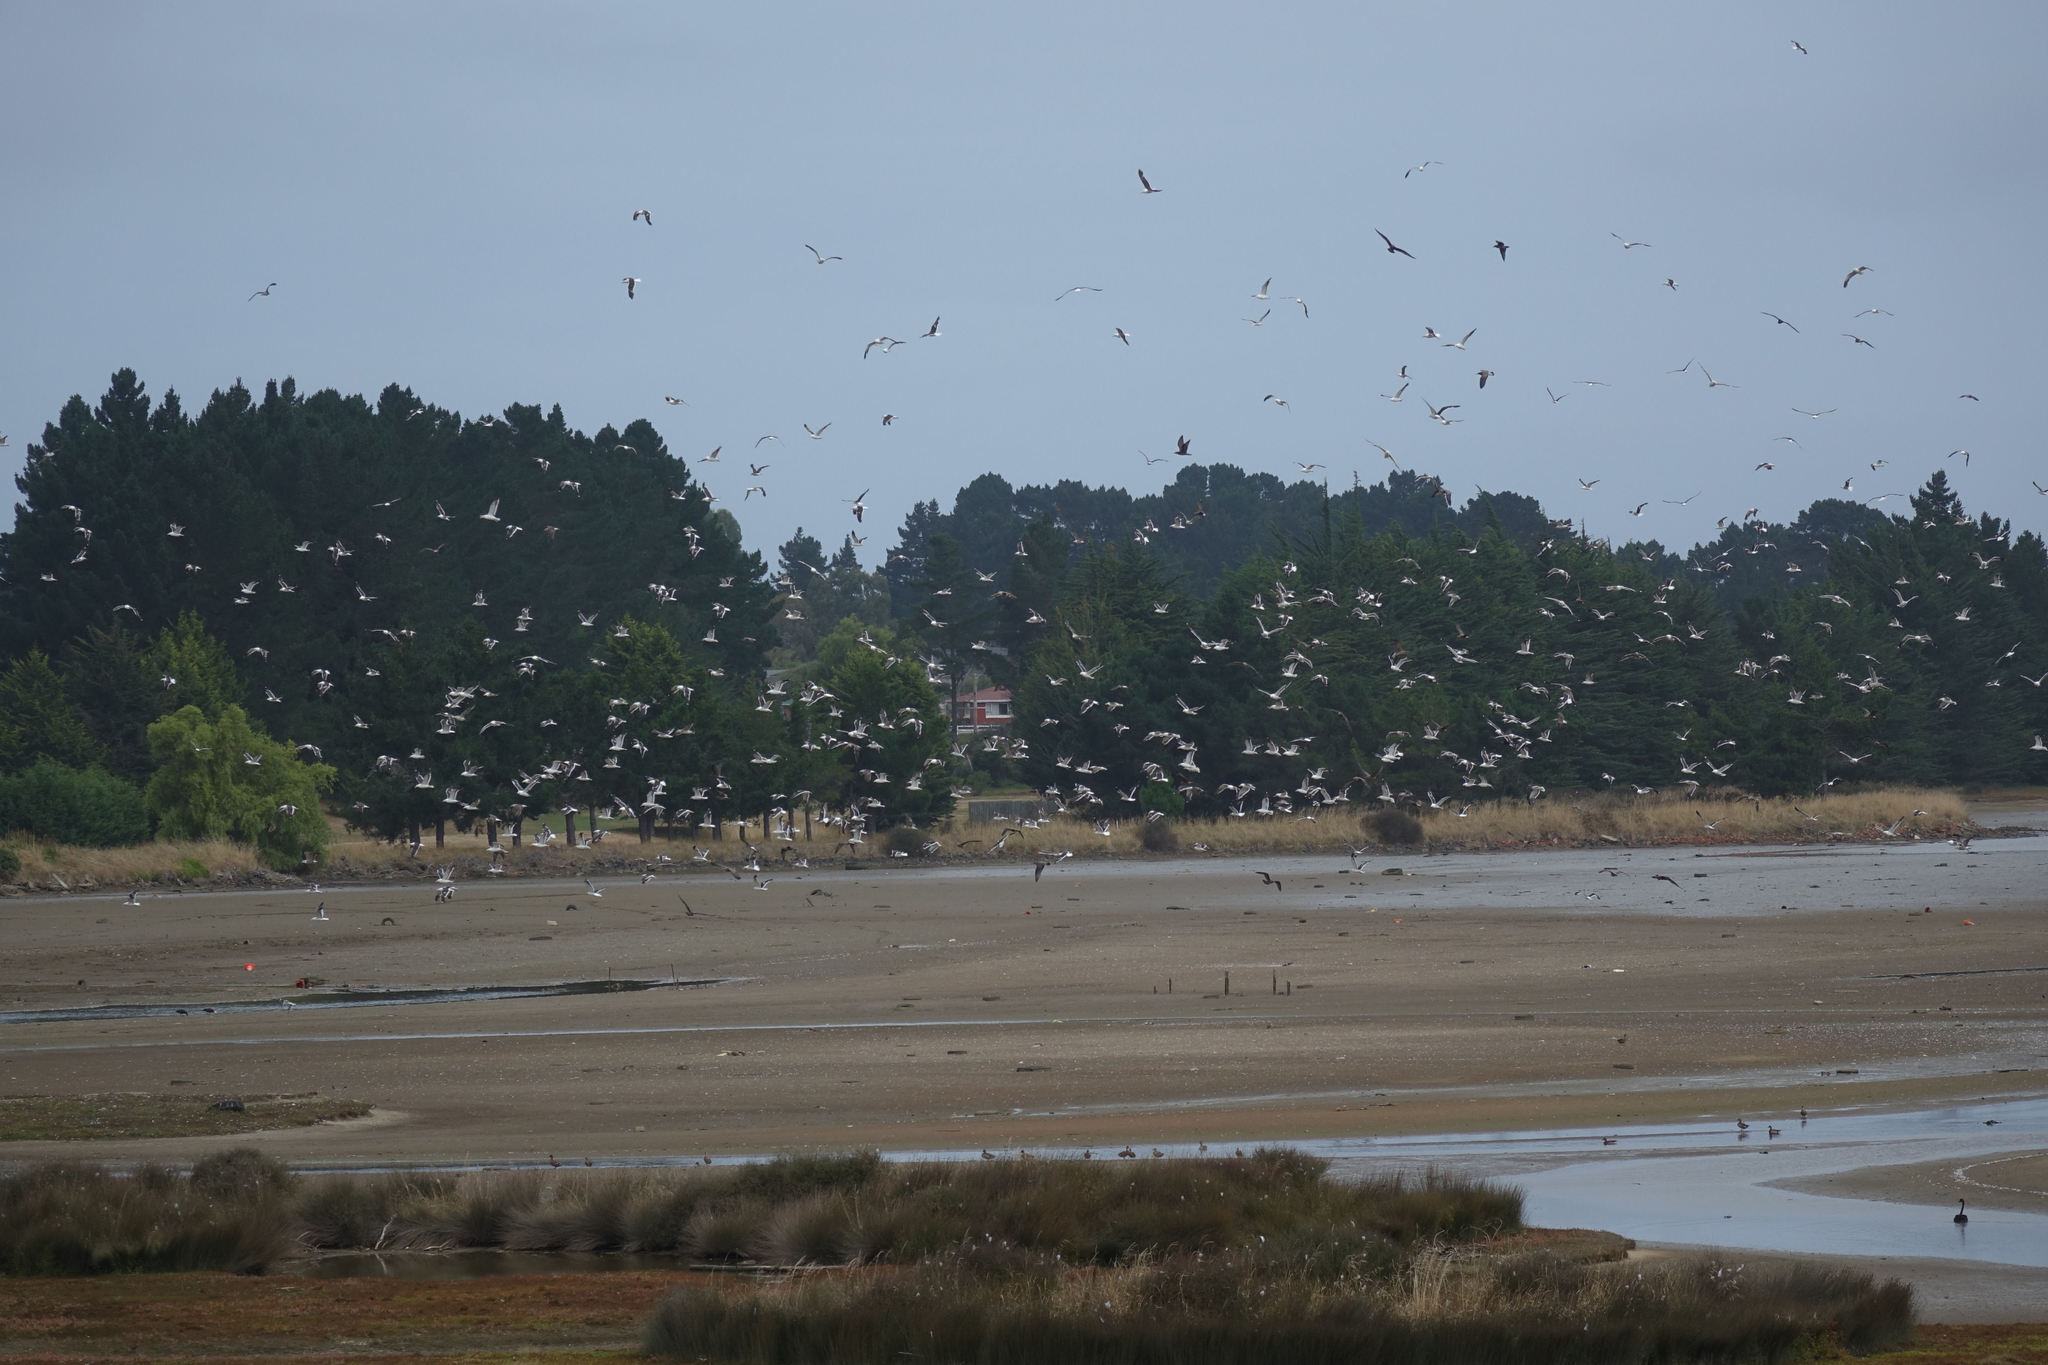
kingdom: Animalia
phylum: Chordata
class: Aves
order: Charadriiformes
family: Laridae
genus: Larus
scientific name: Larus dominicanus
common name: Kelp gull
